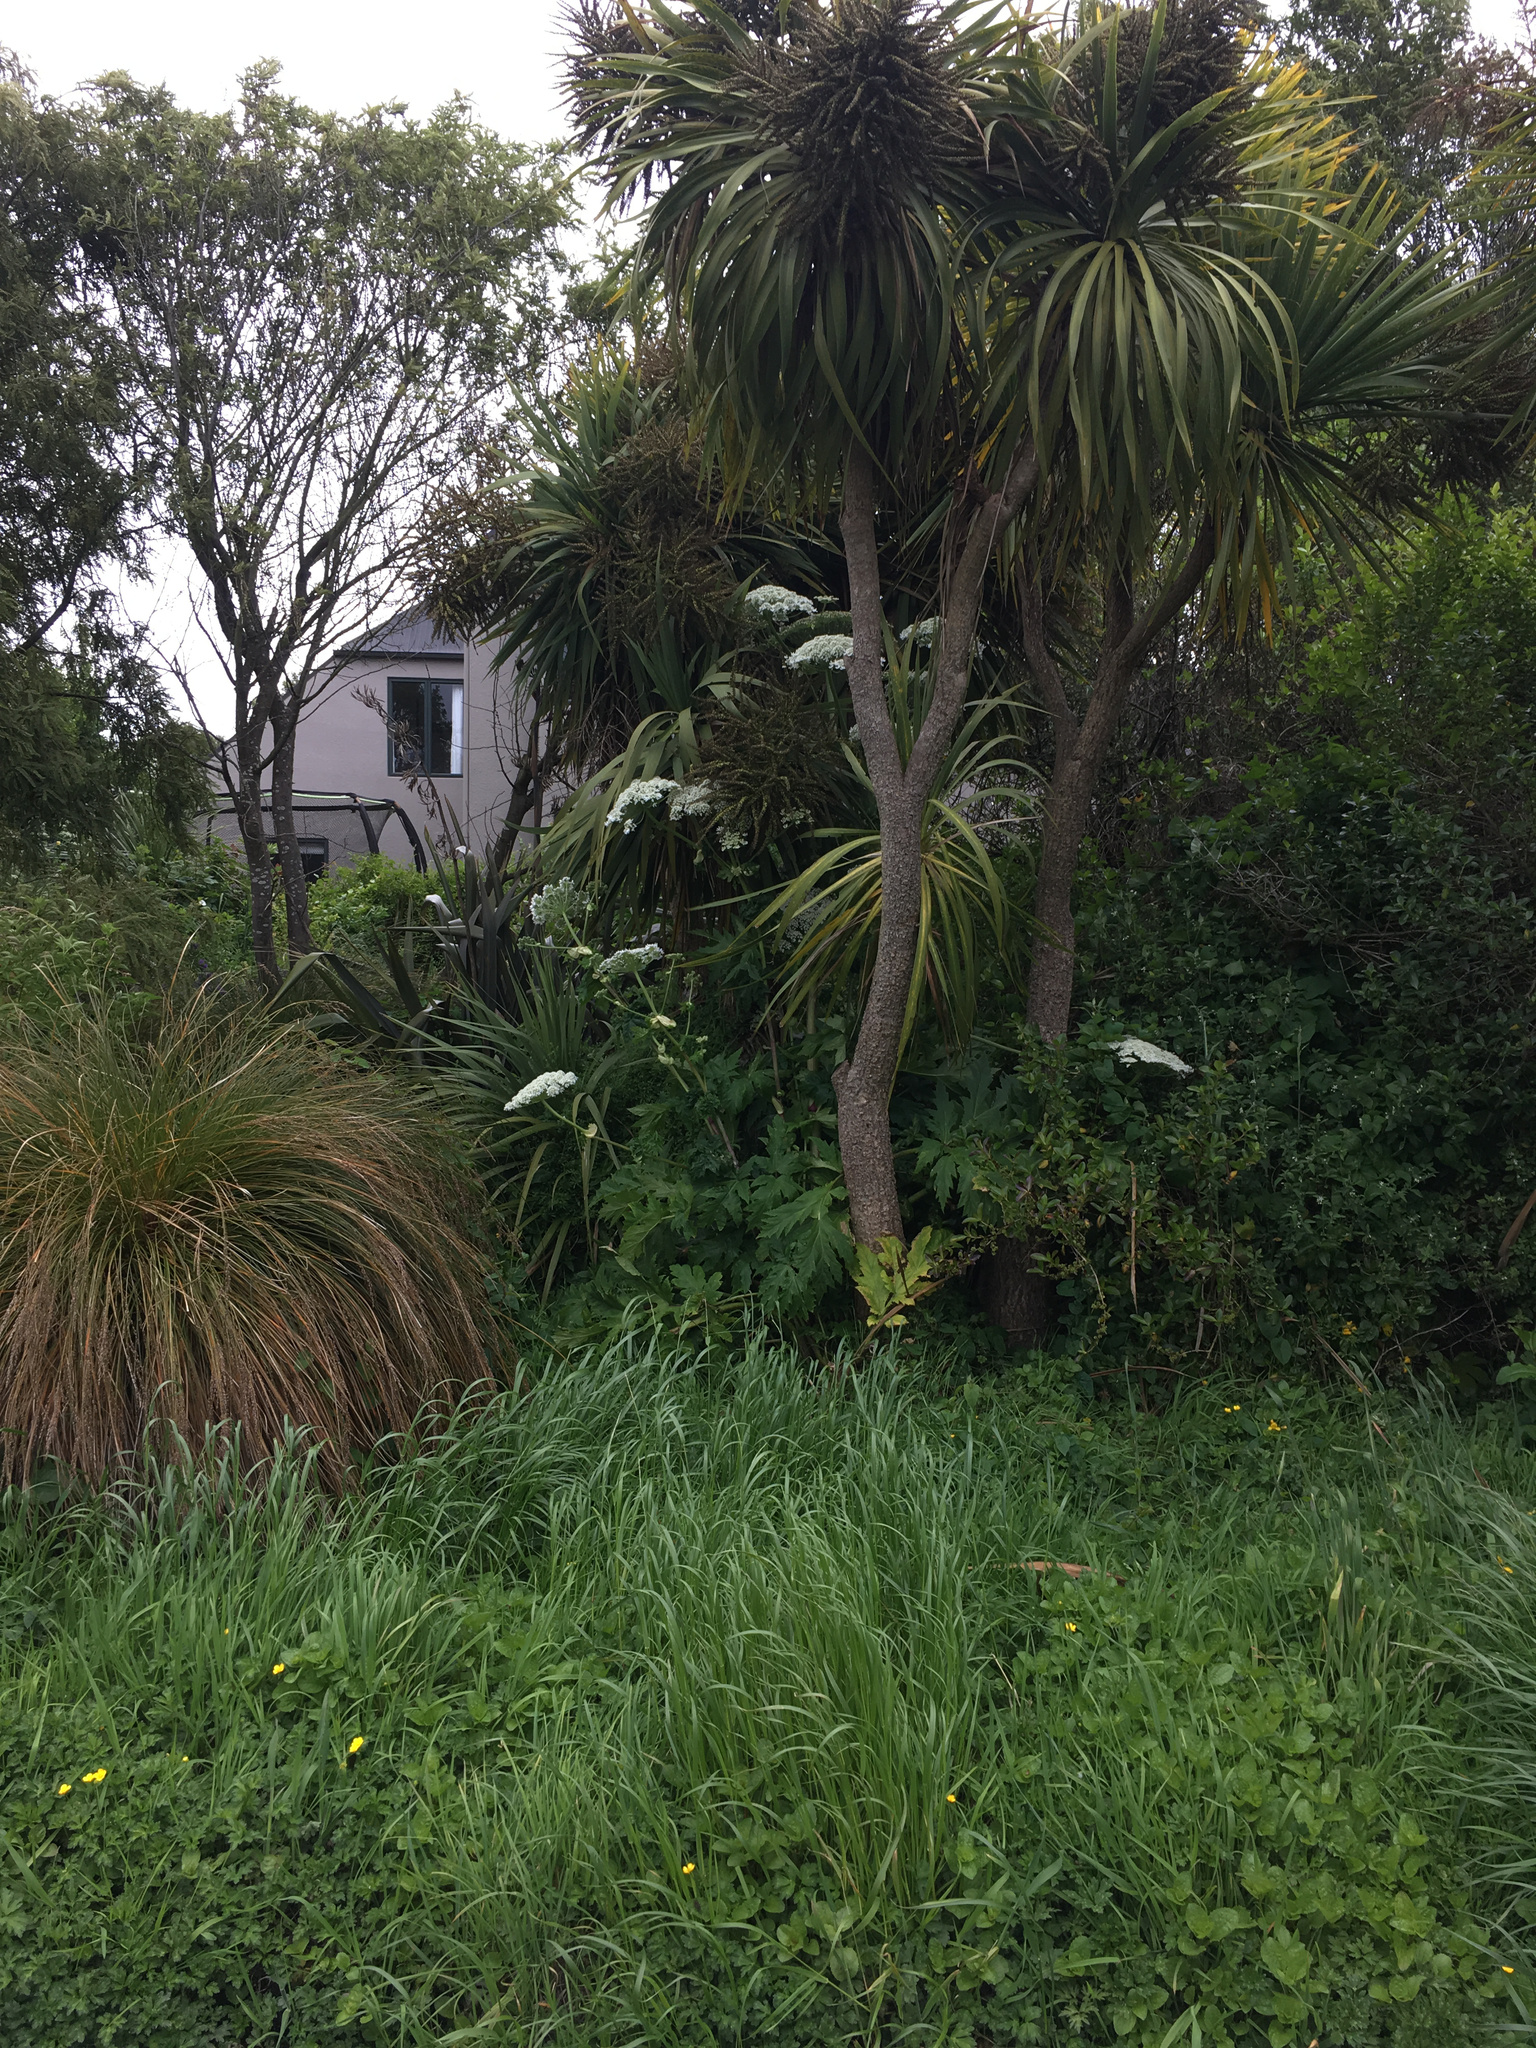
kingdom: Plantae
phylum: Tracheophyta
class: Magnoliopsida
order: Apiales
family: Apiaceae
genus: Heracleum
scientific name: Heracleum mantegazzianum
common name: Giant hogweed
